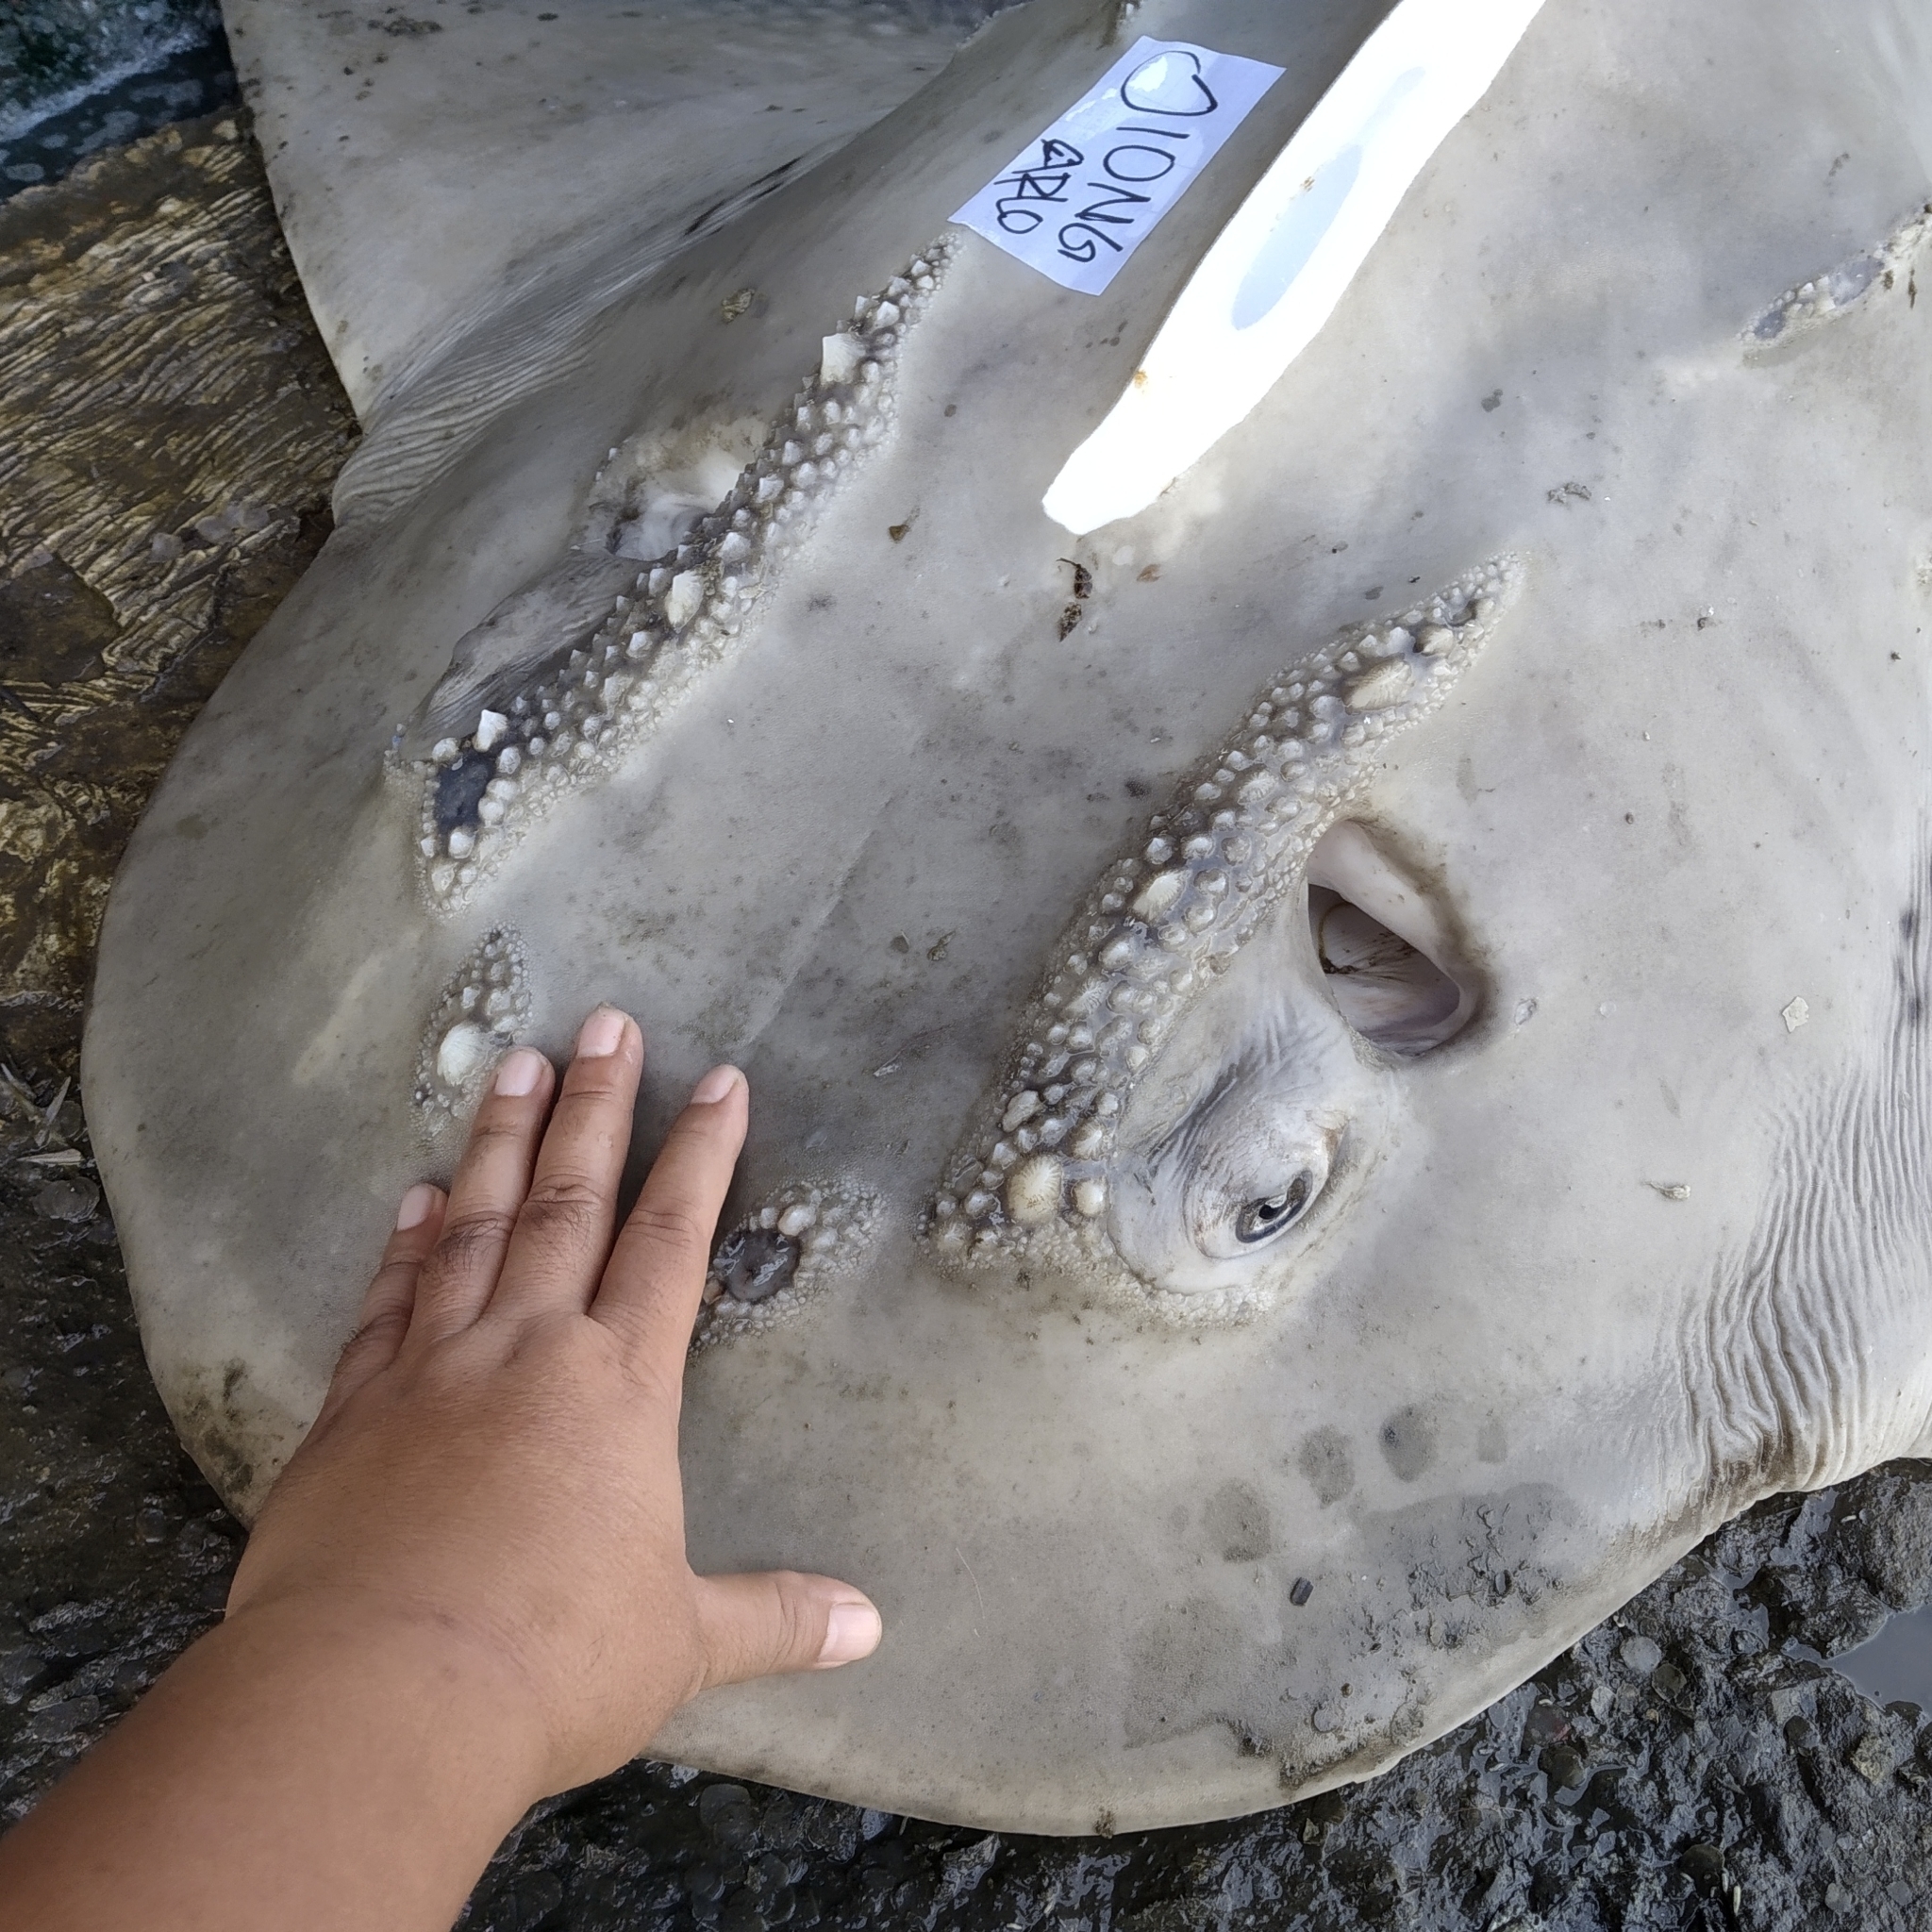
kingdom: Animalia
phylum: Chordata
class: Elasmobranchii
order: Rhinopristiformes
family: Rhinidae
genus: Rhina
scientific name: Rhina ancylostoma
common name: Bowmouth guitarfish
